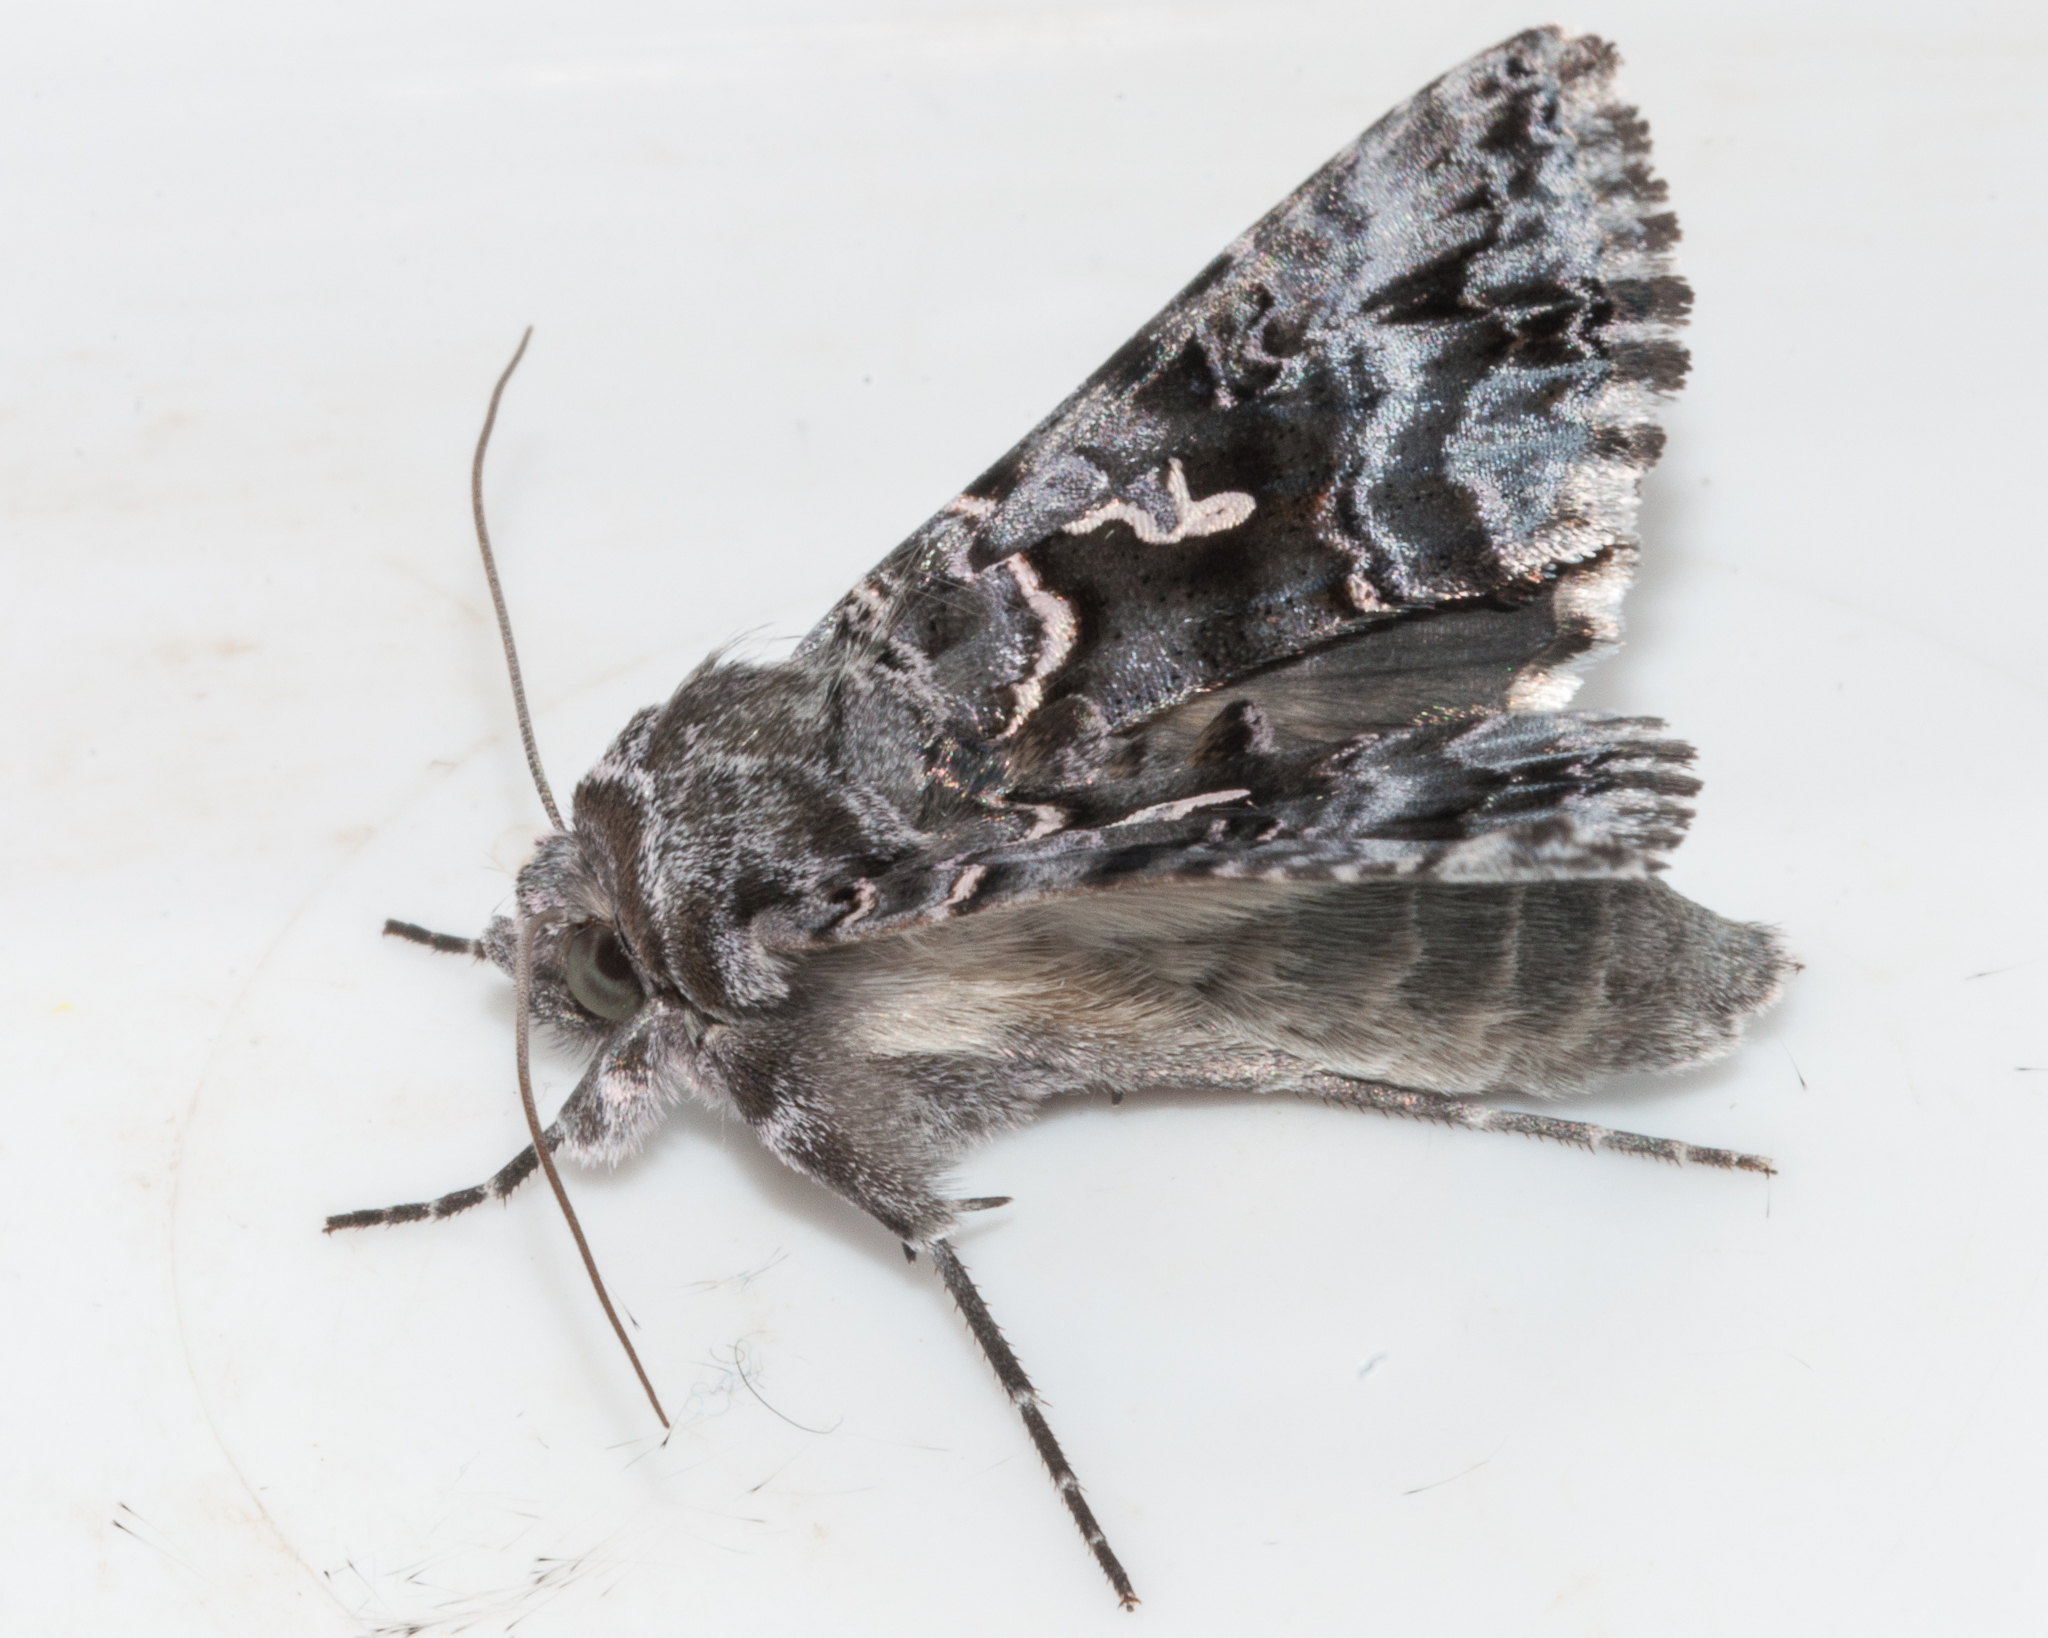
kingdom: Animalia
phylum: Arthropoda
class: Insecta
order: Lepidoptera
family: Noctuidae
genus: Ctenoplusia
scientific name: Ctenoplusia lavendula
